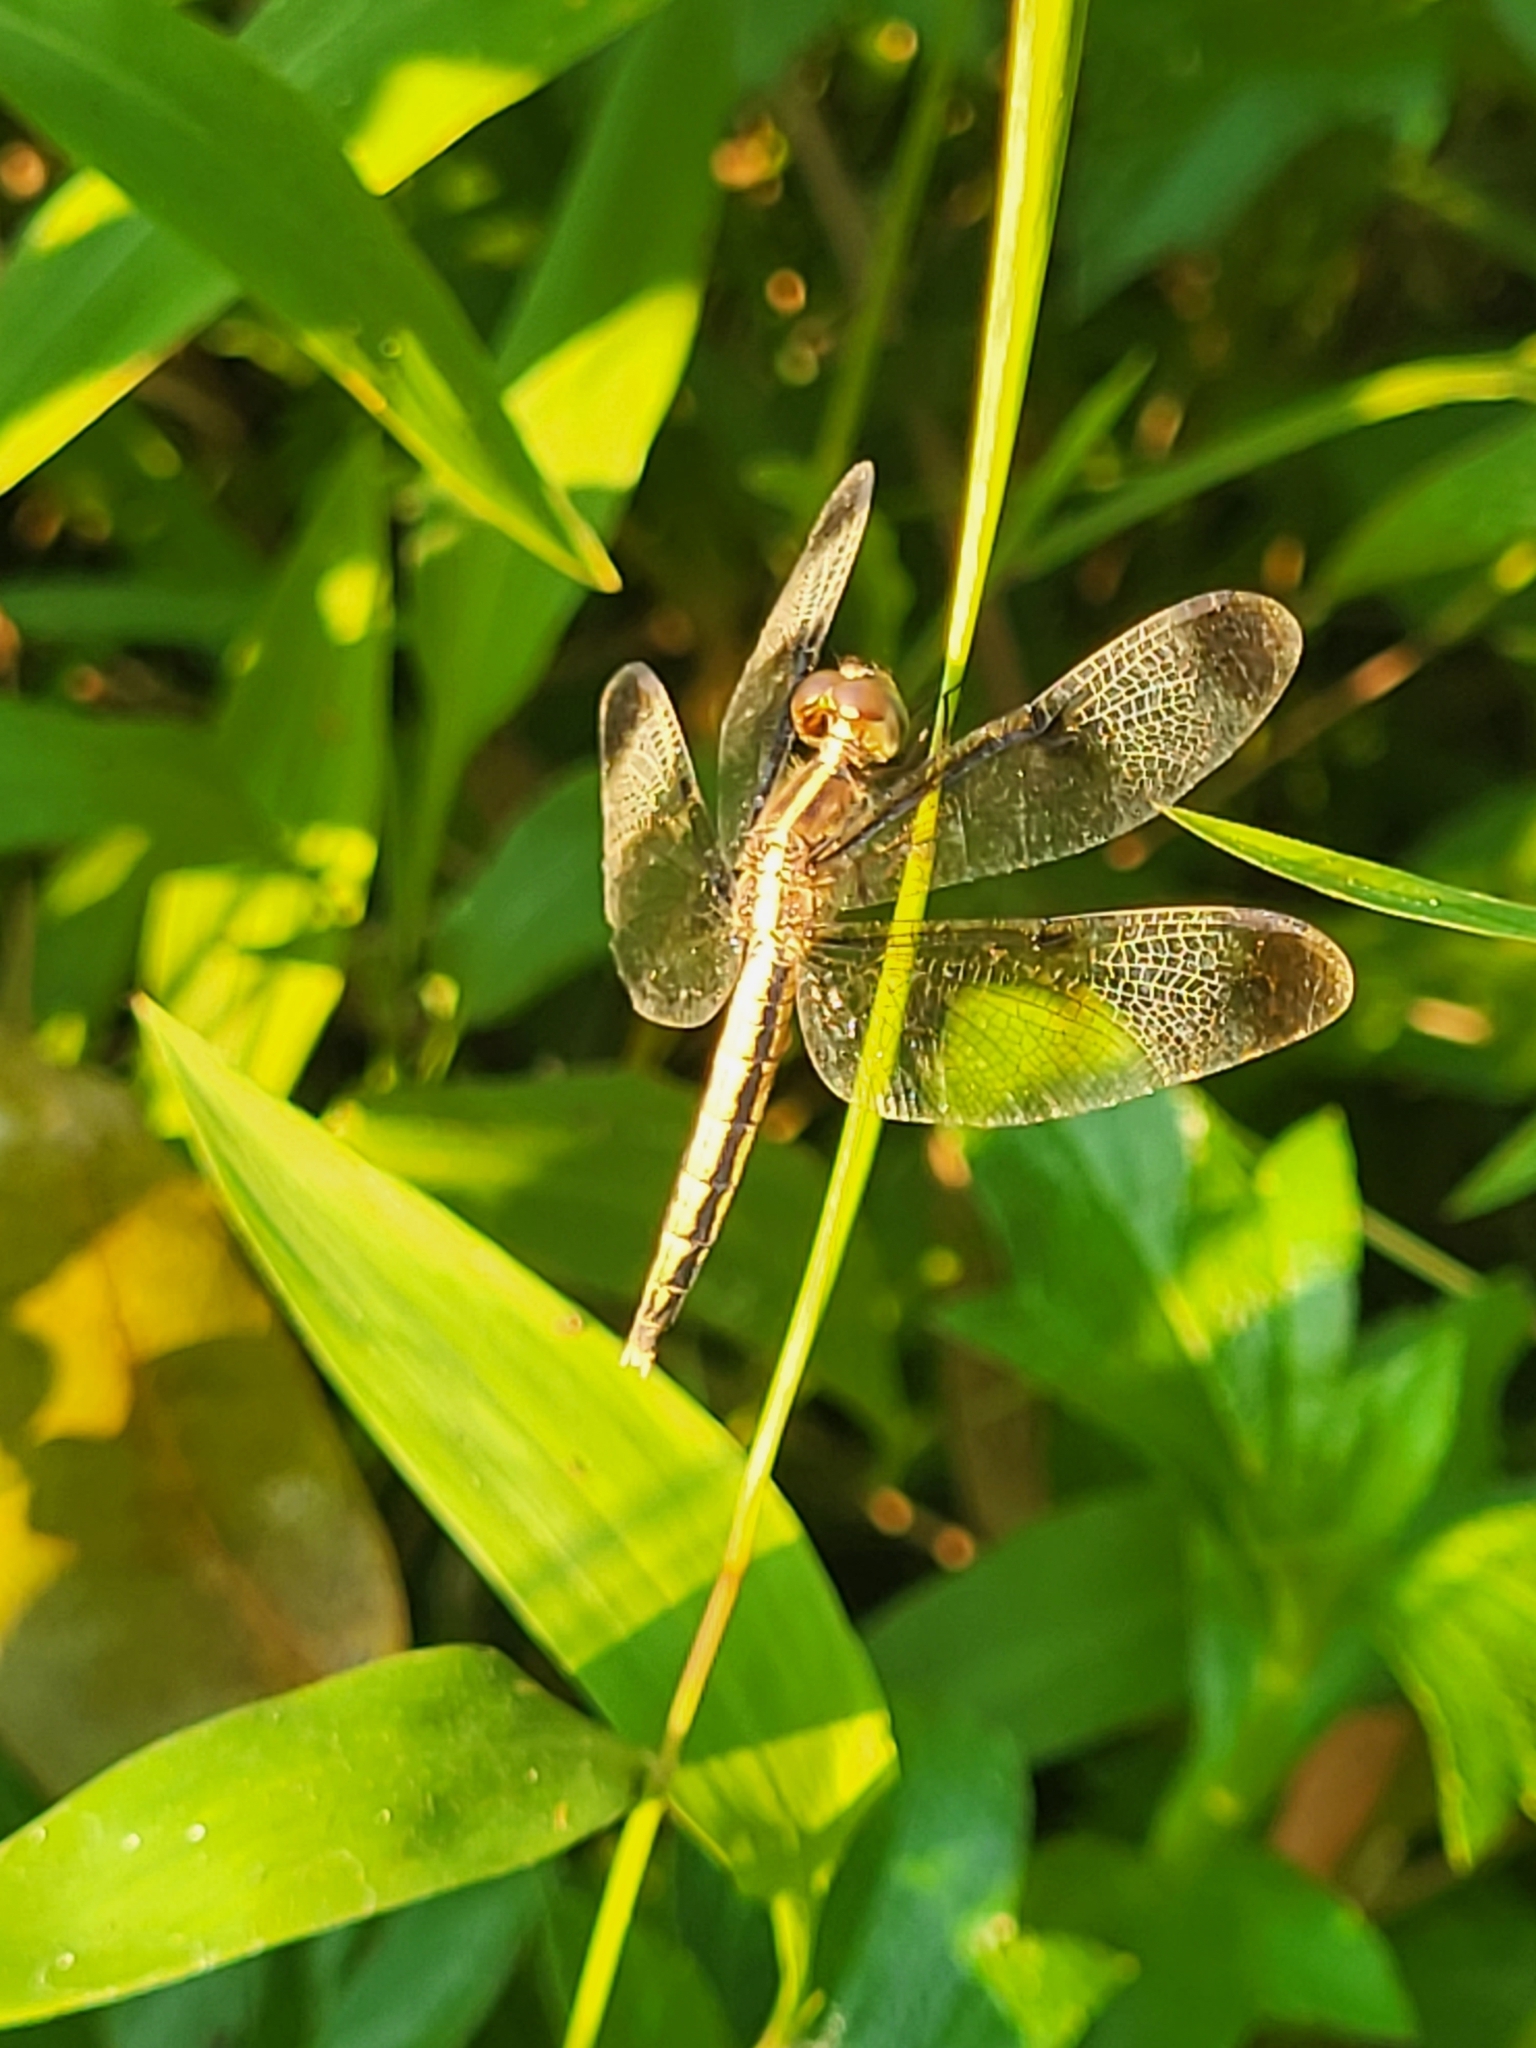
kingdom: Animalia
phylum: Arthropoda
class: Insecta
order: Odonata
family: Libellulidae
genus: Neurothemis
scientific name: Neurothemis tullia
